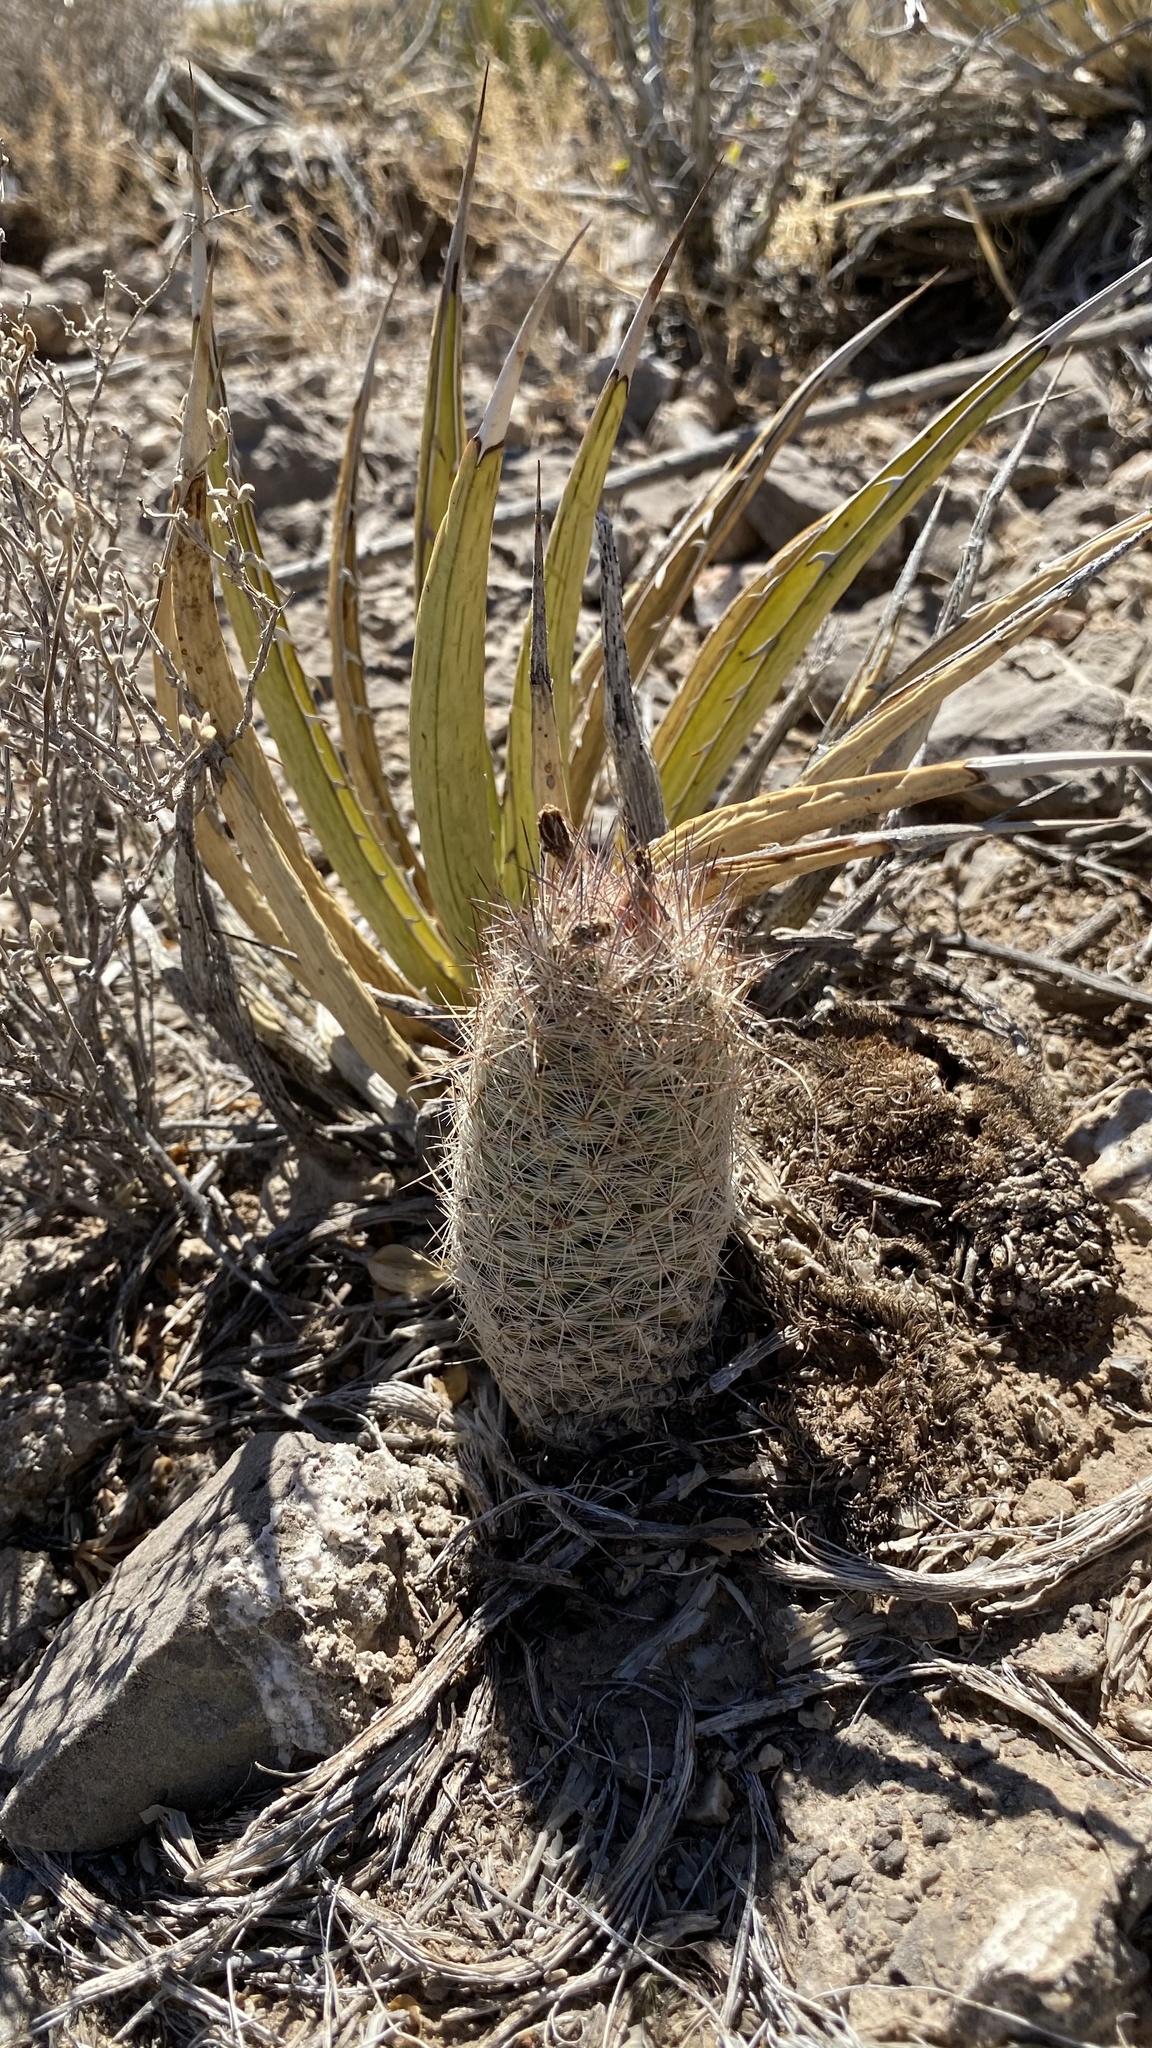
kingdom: Plantae
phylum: Tracheophyta
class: Magnoliopsida
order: Caryophyllales
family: Cactaceae
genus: Pelecyphora
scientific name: Pelecyphora tuberculosa
